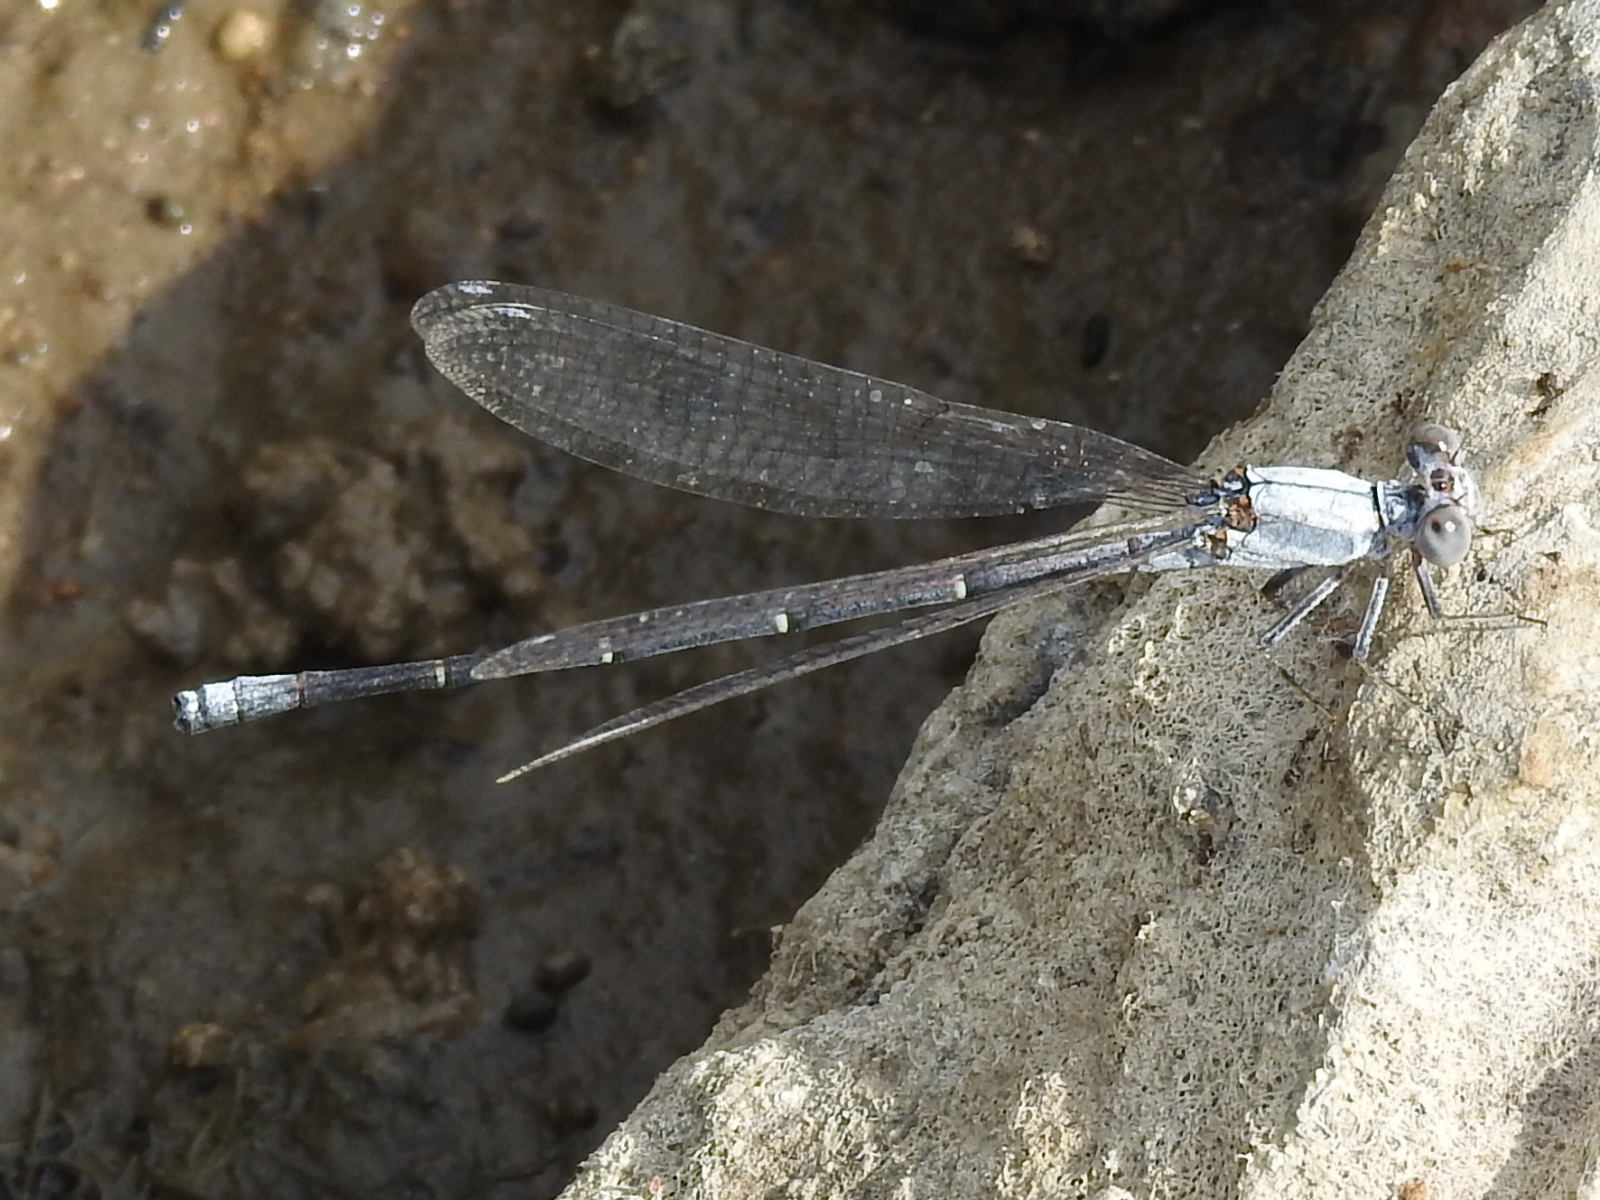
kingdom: Animalia
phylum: Arthropoda
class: Insecta
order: Odonata
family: Coenagrionidae
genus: Argia
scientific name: Argia moesta
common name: Powdered dancer
